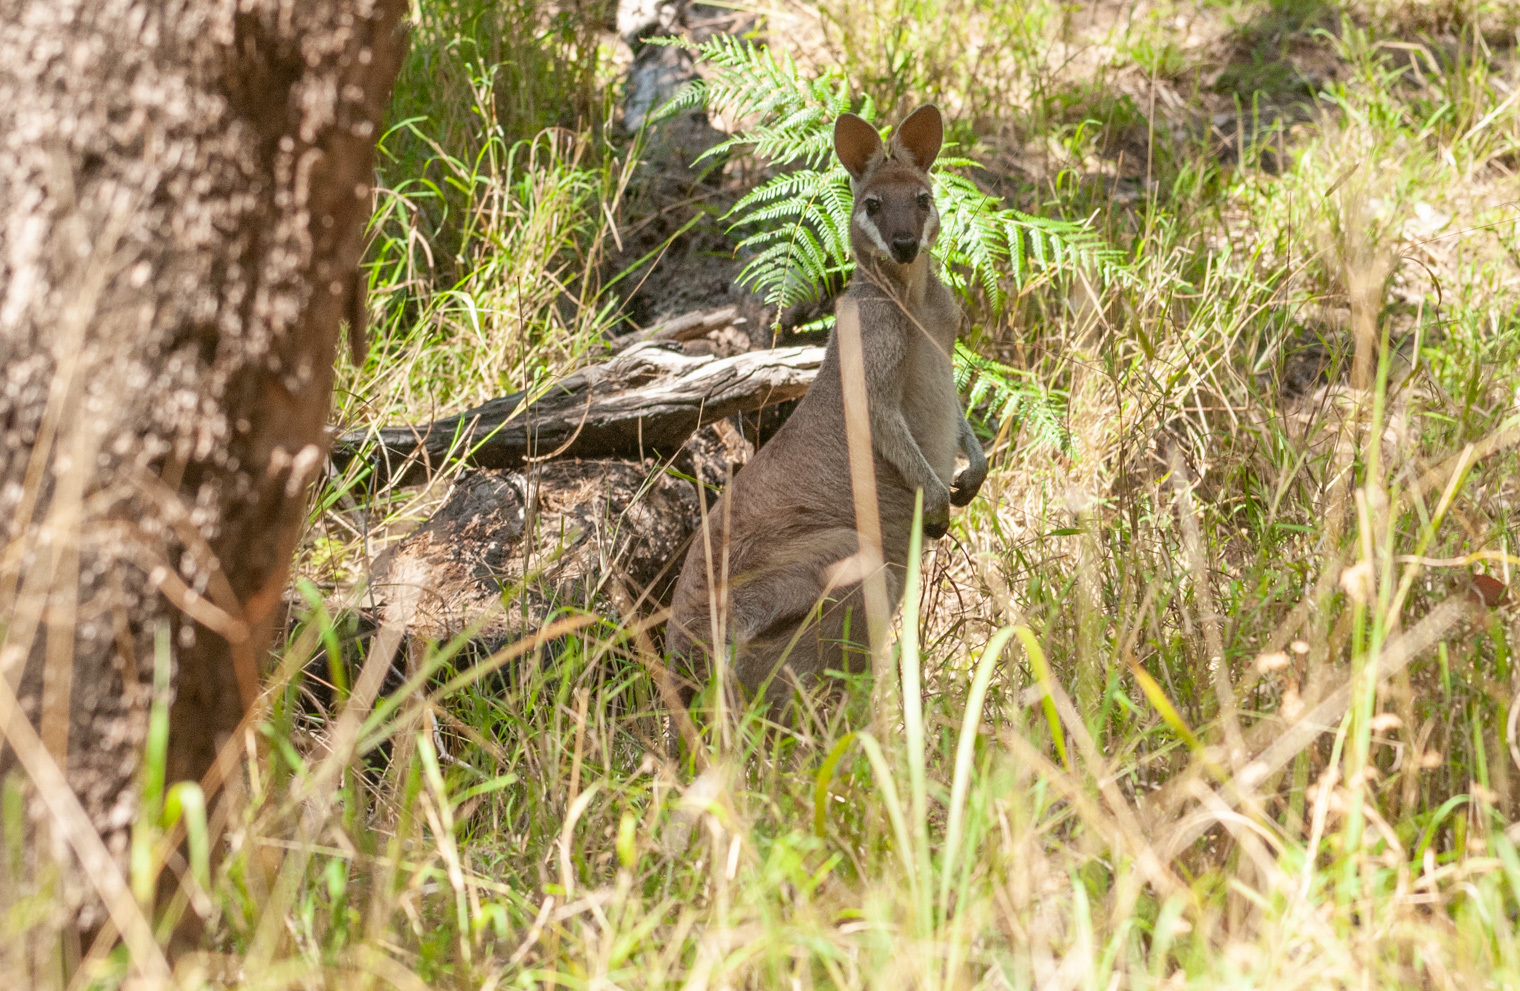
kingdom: Animalia
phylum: Chordata
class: Mammalia
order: Diprotodontia
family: Macropodidae
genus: Notamacropus
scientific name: Notamacropus parryi
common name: Whip-tailed wallaby
